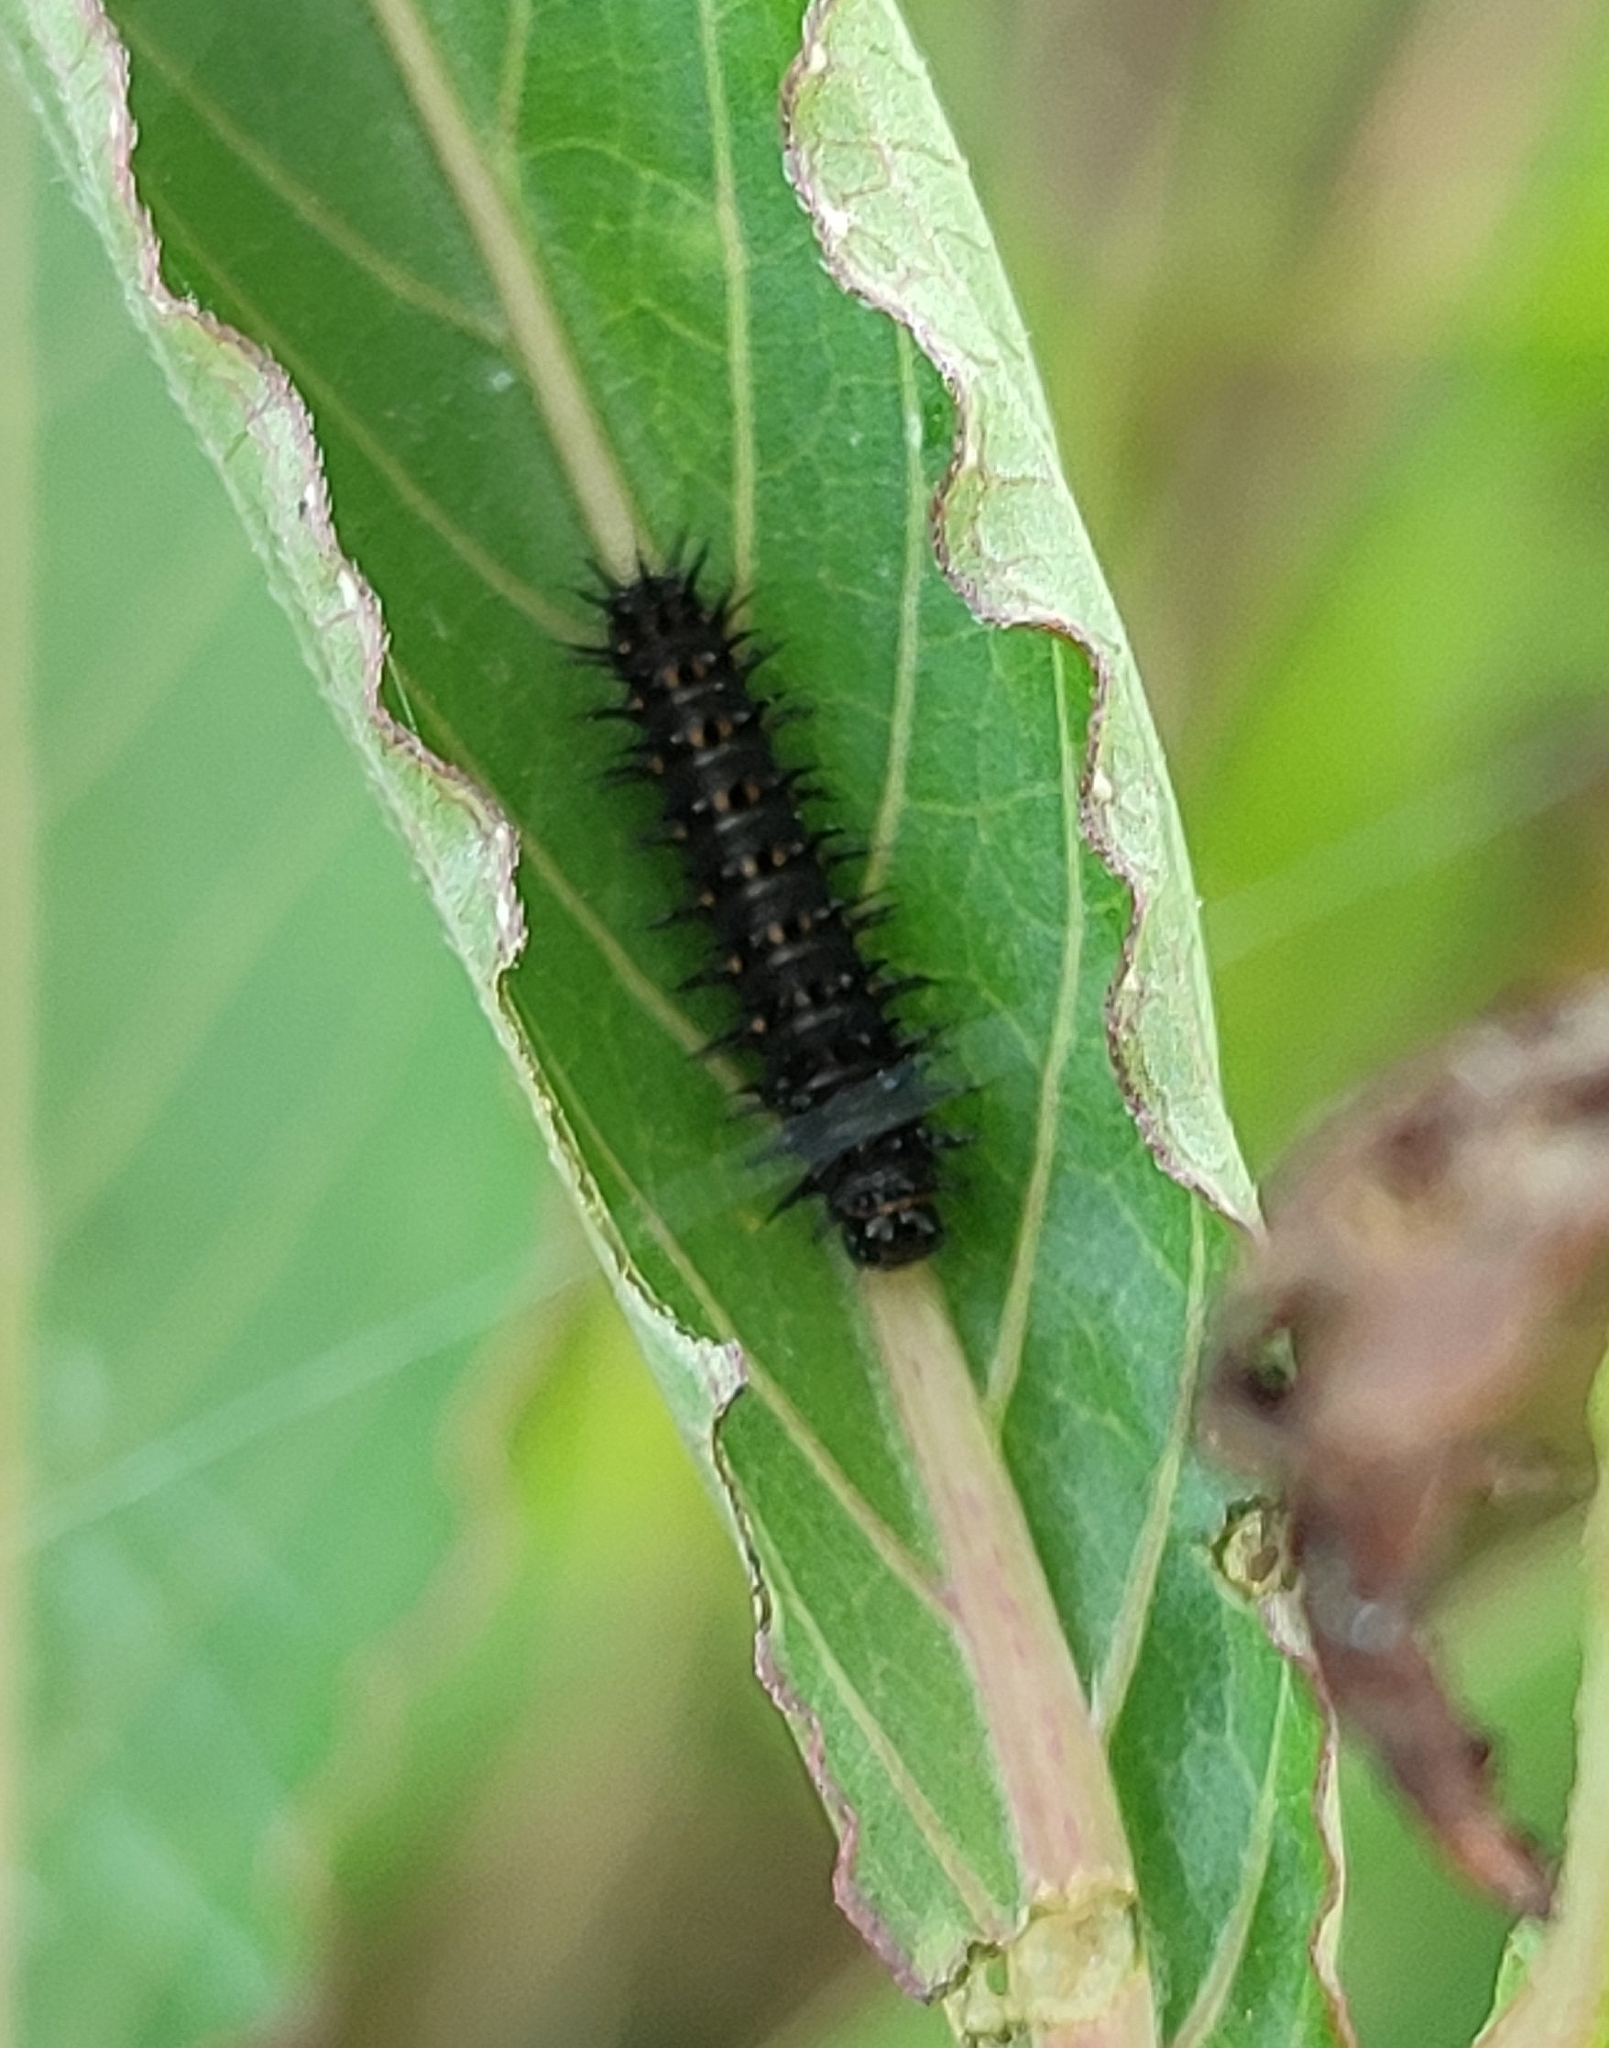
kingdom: Animalia
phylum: Arthropoda
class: Insecta
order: Lepidoptera
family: Nymphalidae
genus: Junonia
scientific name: Junonia lemonias
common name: Lemon pansy
